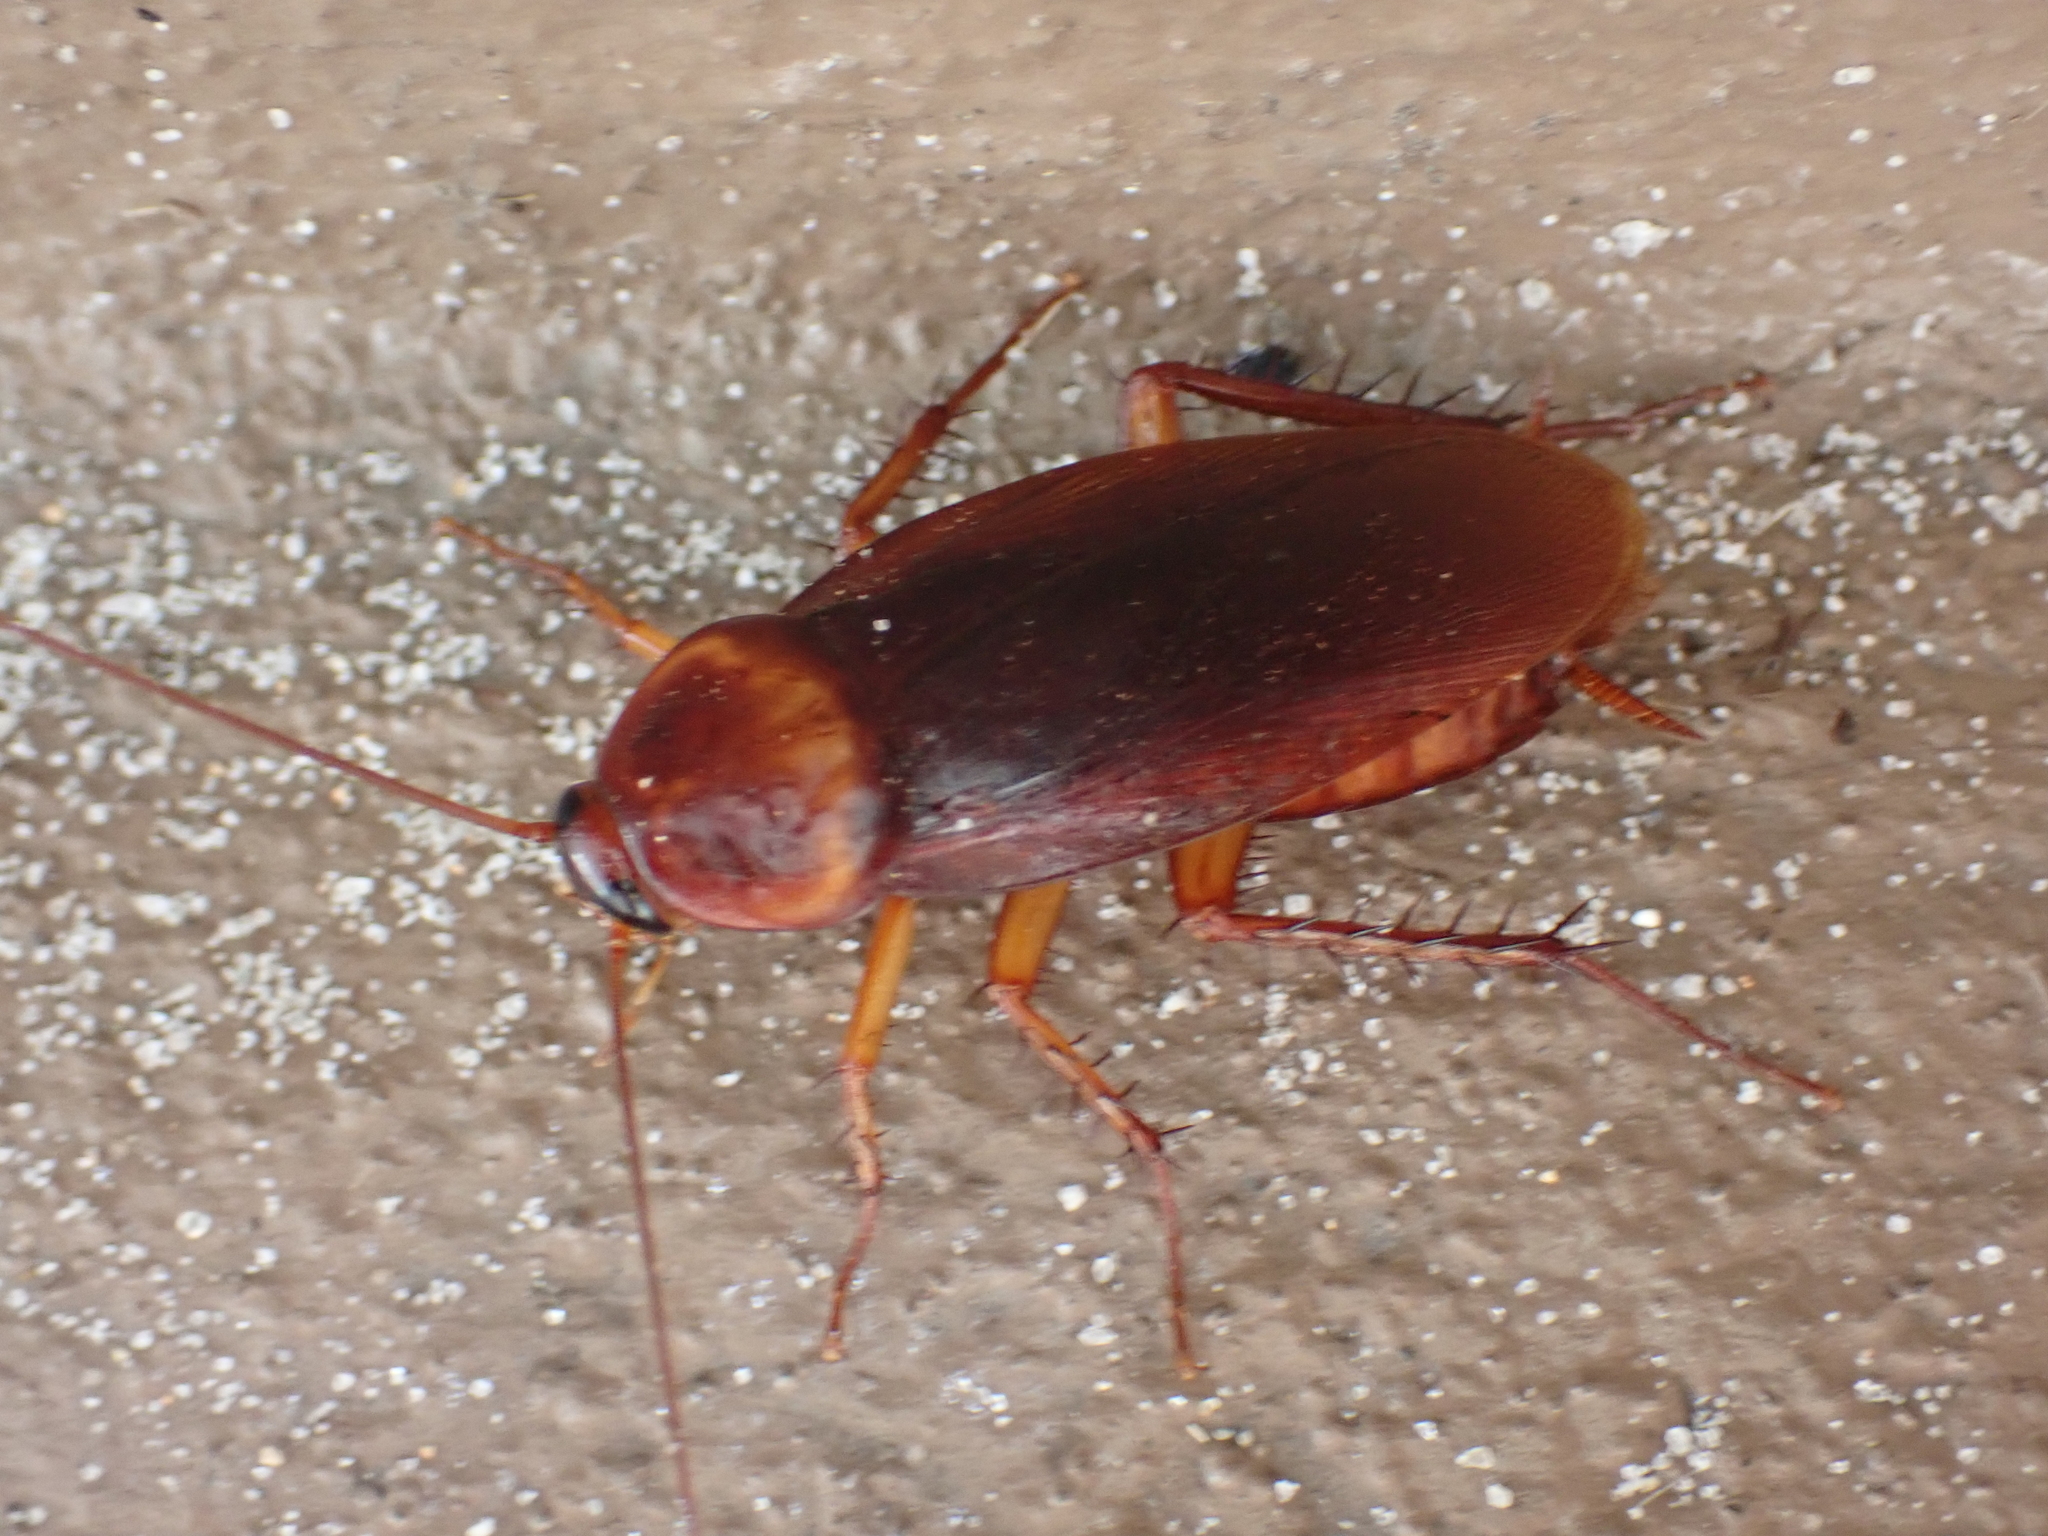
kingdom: Animalia
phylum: Arthropoda
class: Insecta
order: Blattodea
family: Blattidae
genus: Periplaneta
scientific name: Periplaneta americana
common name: American cockroach
